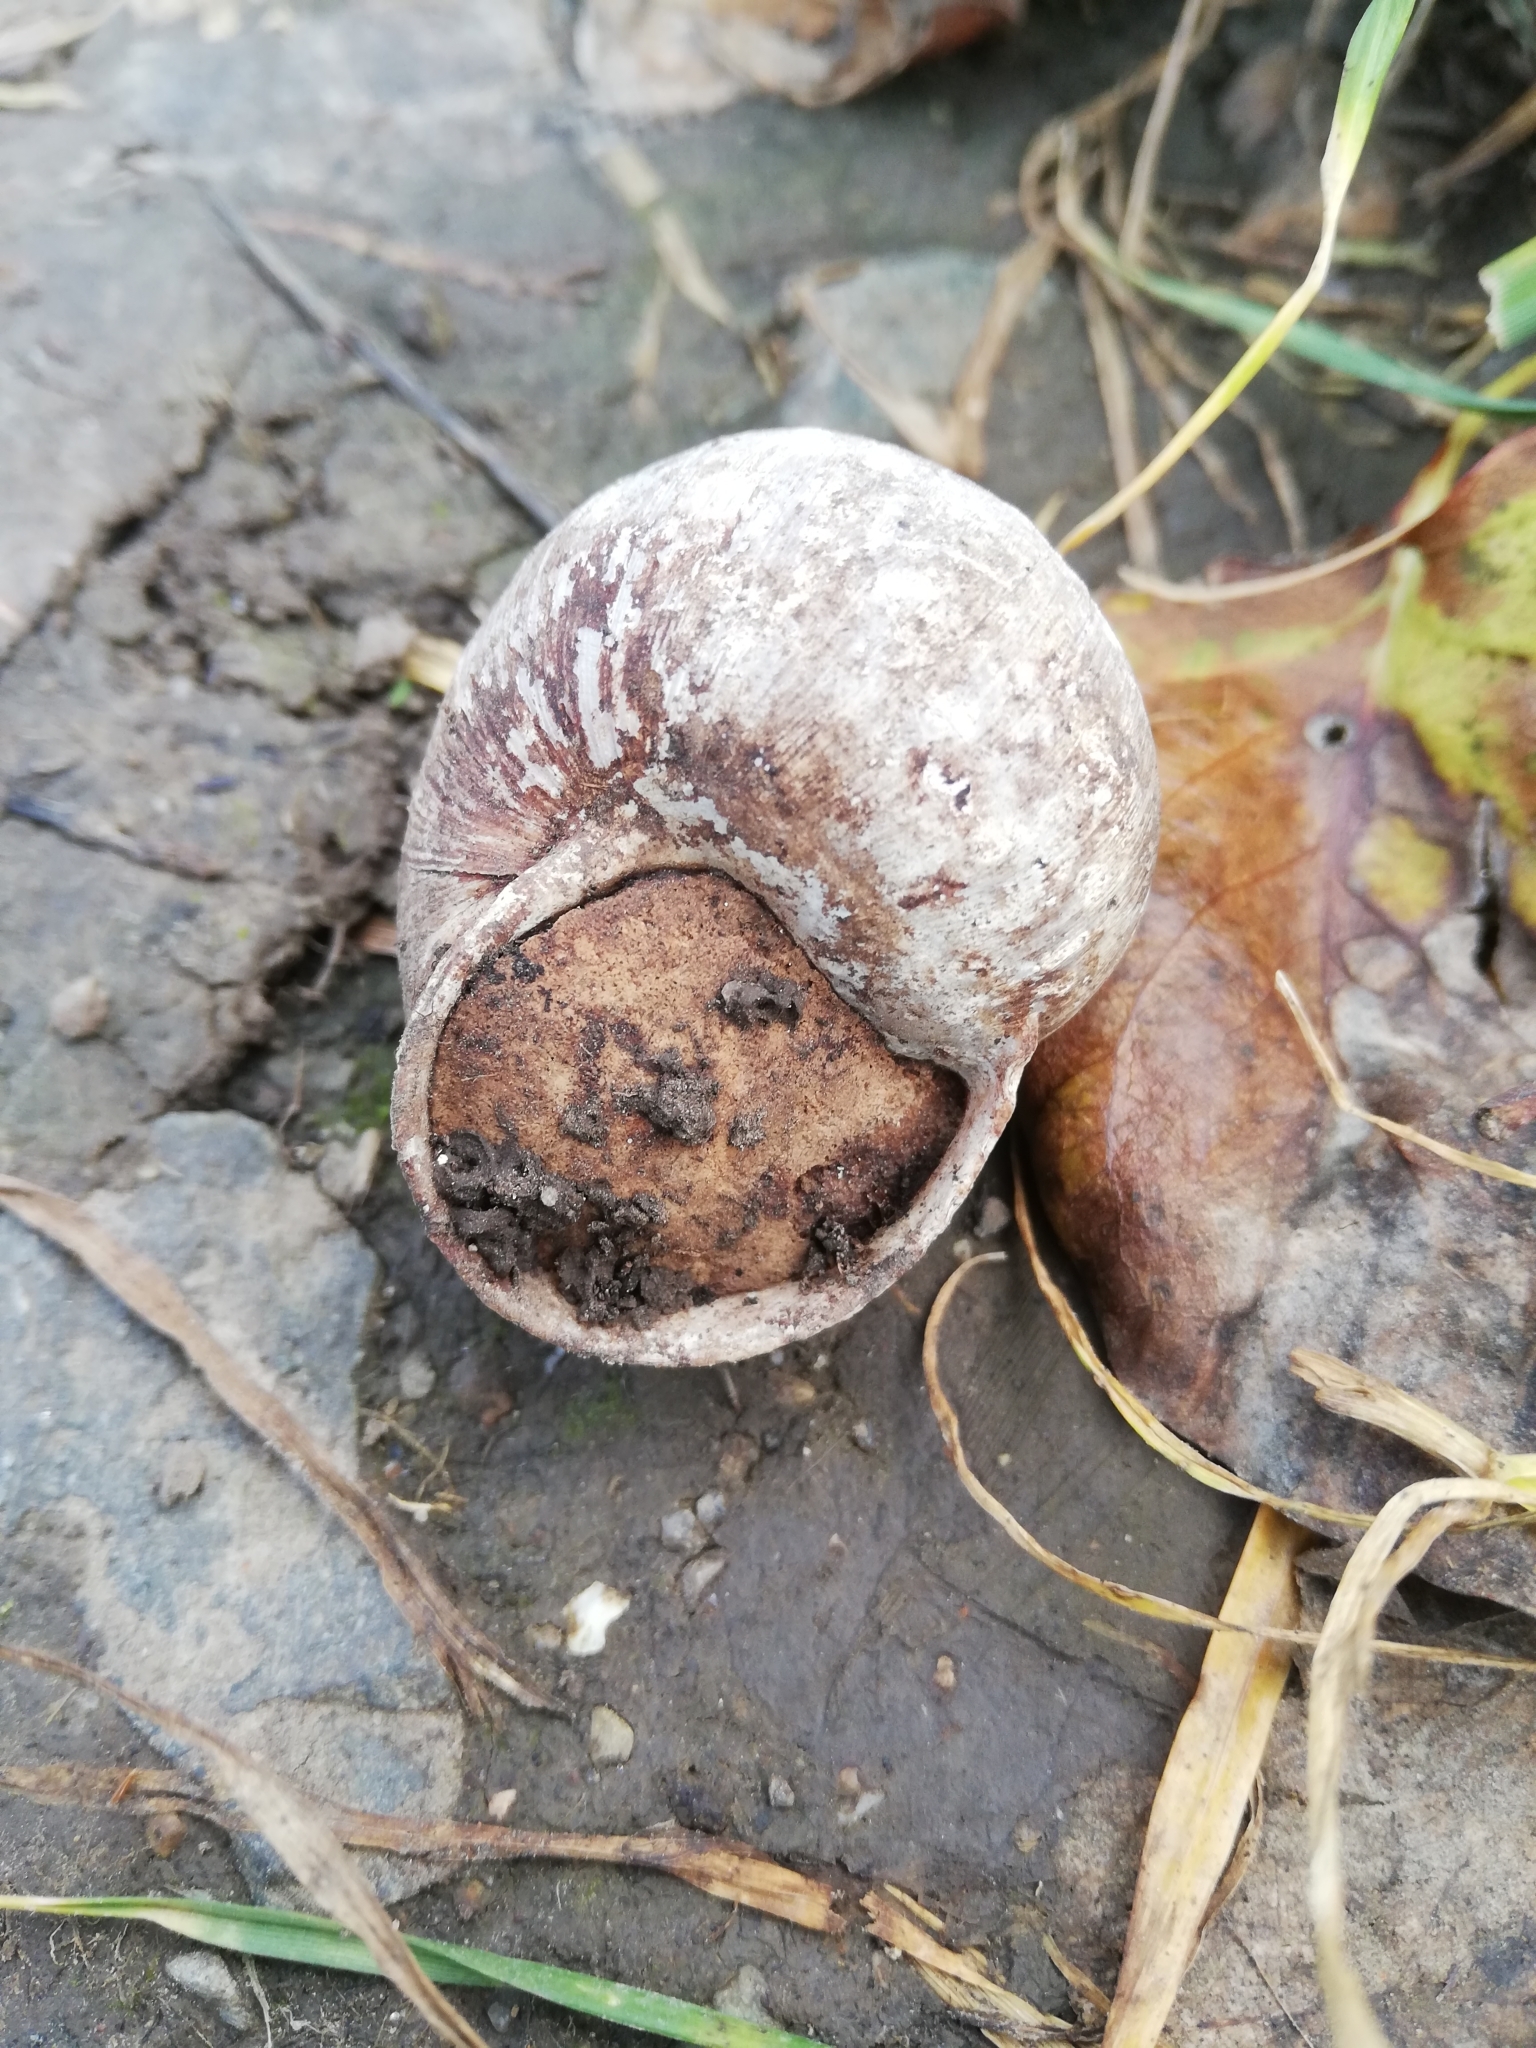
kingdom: Animalia
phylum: Mollusca
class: Gastropoda
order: Stylommatophora
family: Helicidae
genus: Helix
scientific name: Helix pomatia
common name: Roman snail
